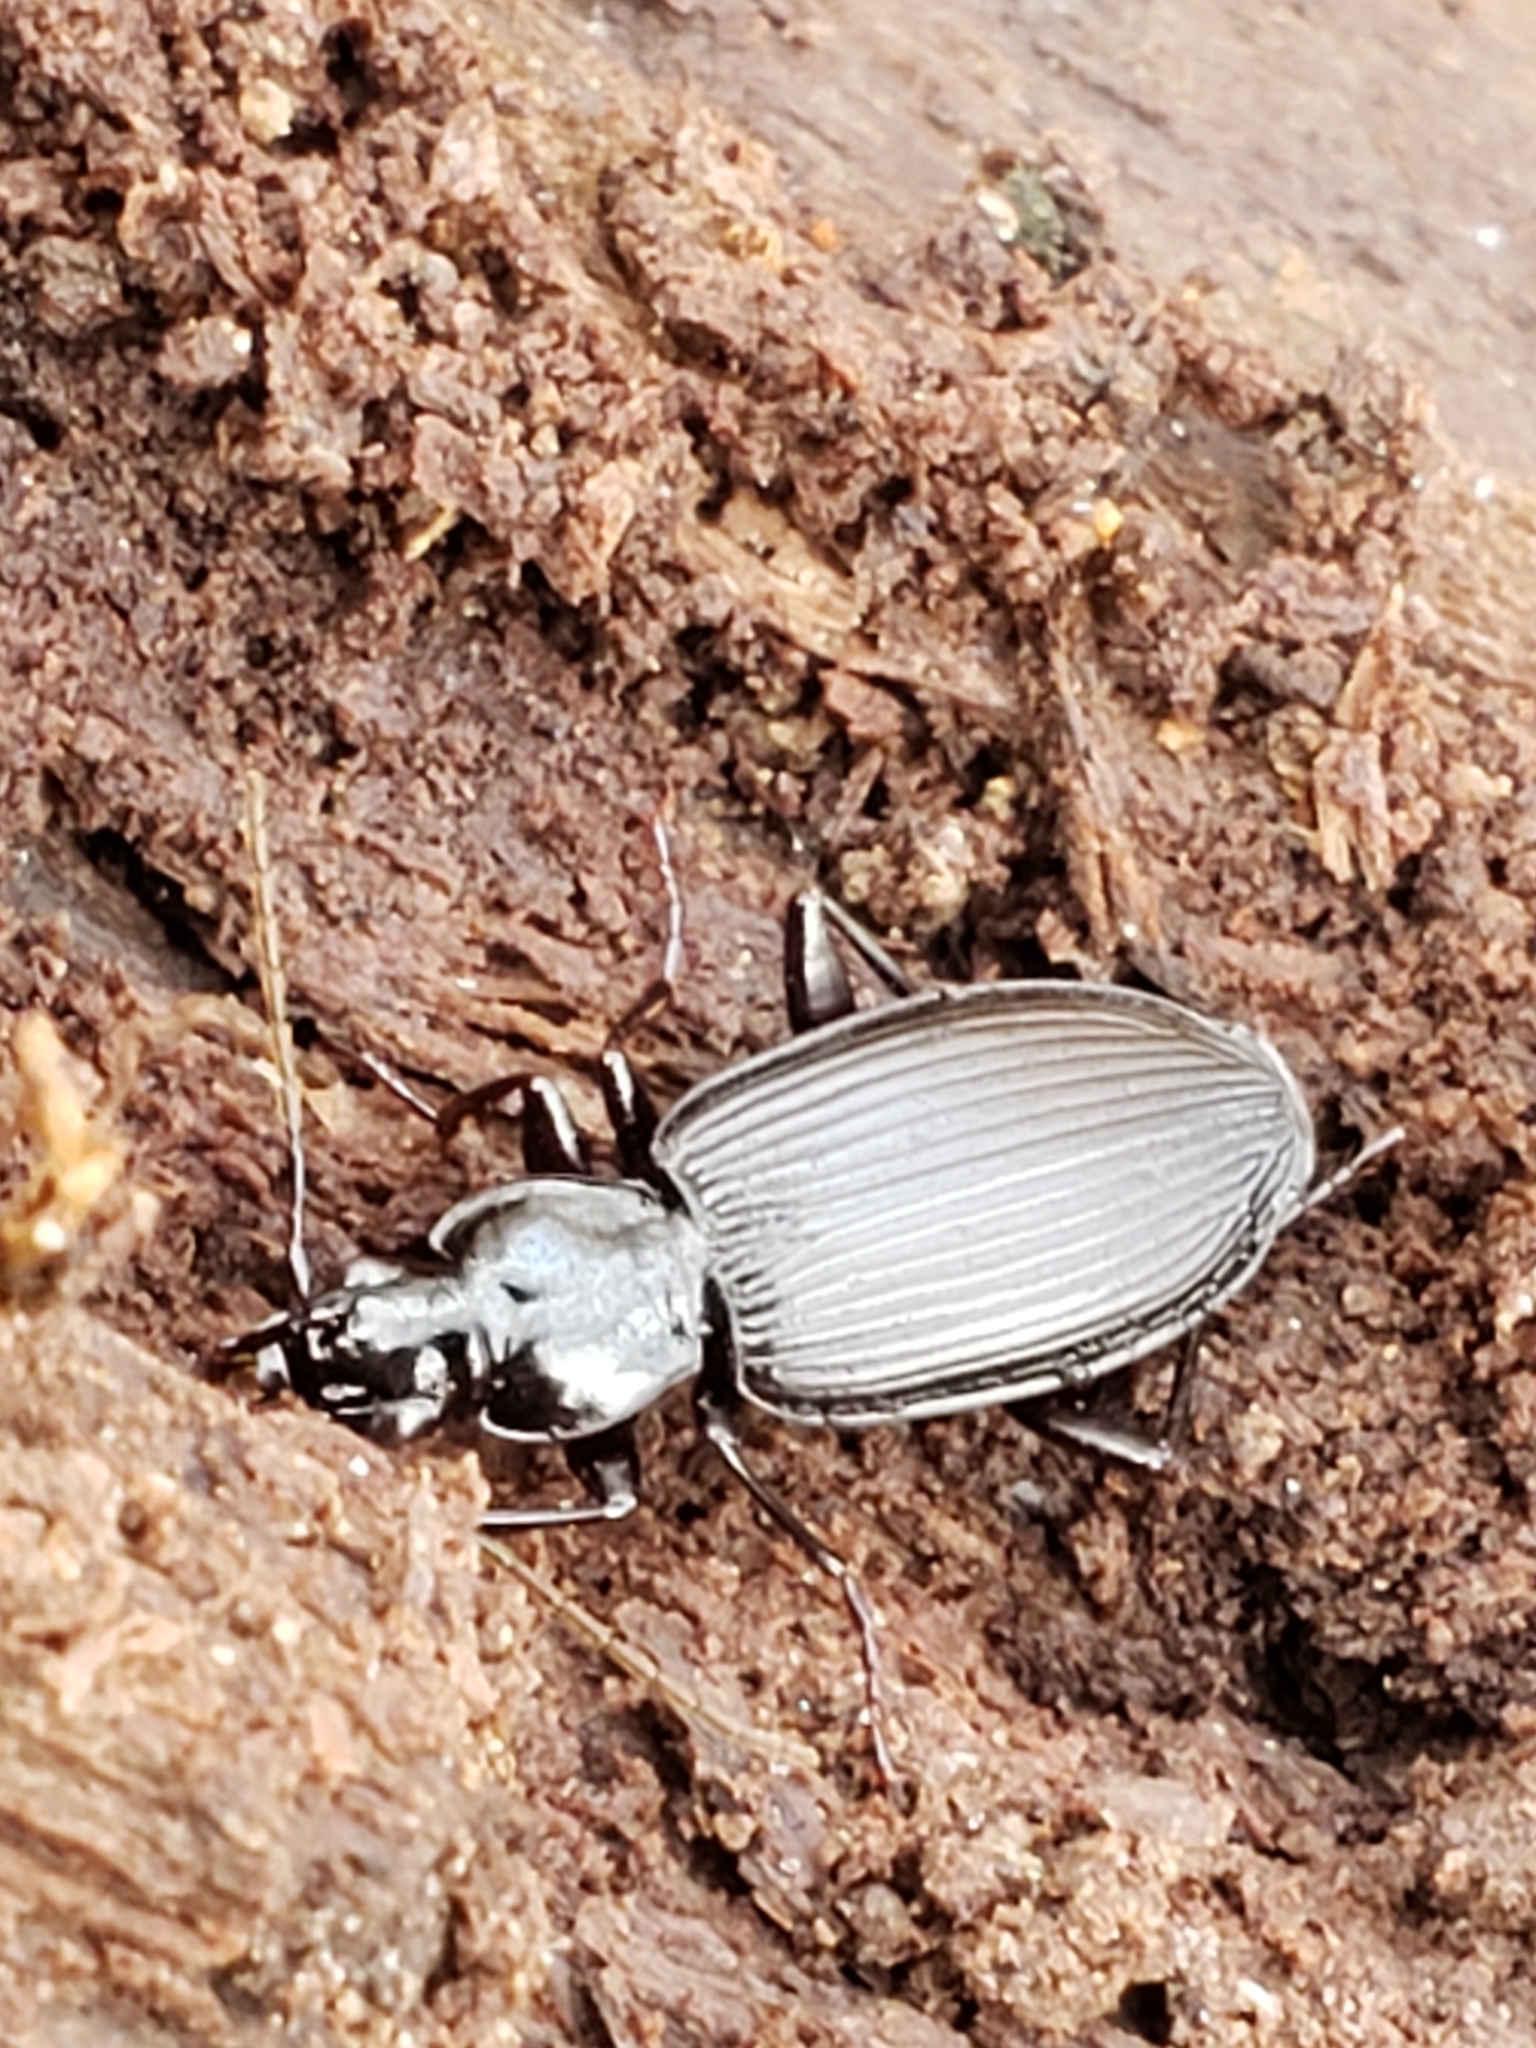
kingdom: Animalia
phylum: Arthropoda
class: Insecta
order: Coleoptera
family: Carabidae
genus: Platynus
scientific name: Platynus decentis
